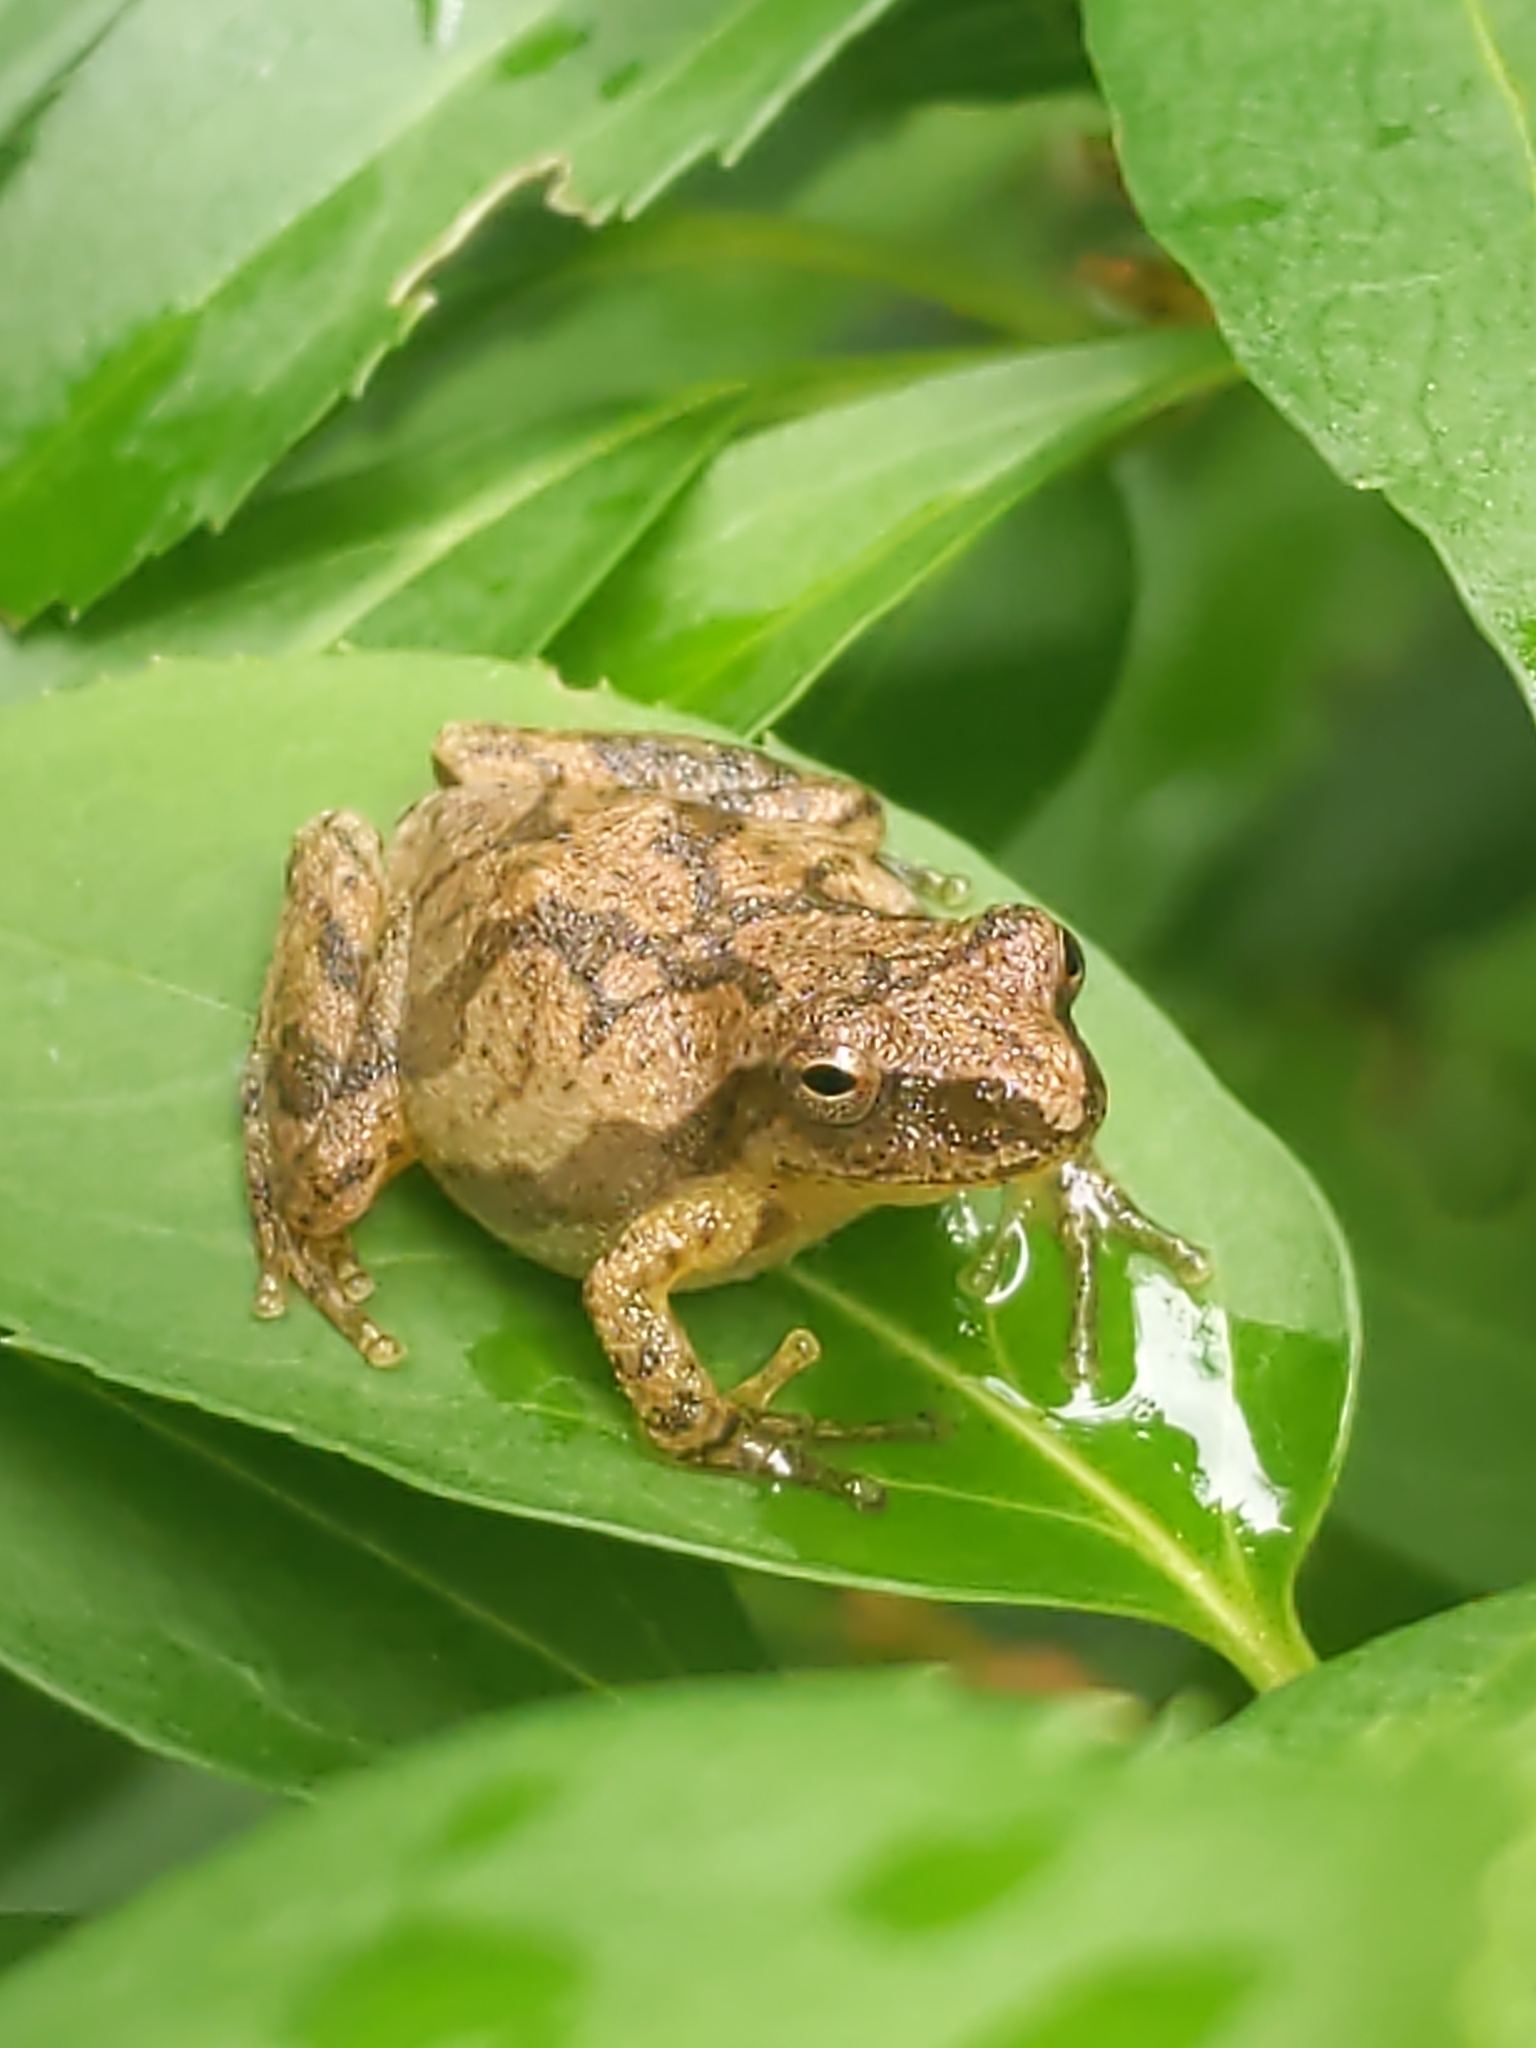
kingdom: Animalia
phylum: Chordata
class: Amphibia
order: Anura
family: Hylidae
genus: Pseudacris
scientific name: Pseudacris crucifer
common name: Spring peeper
